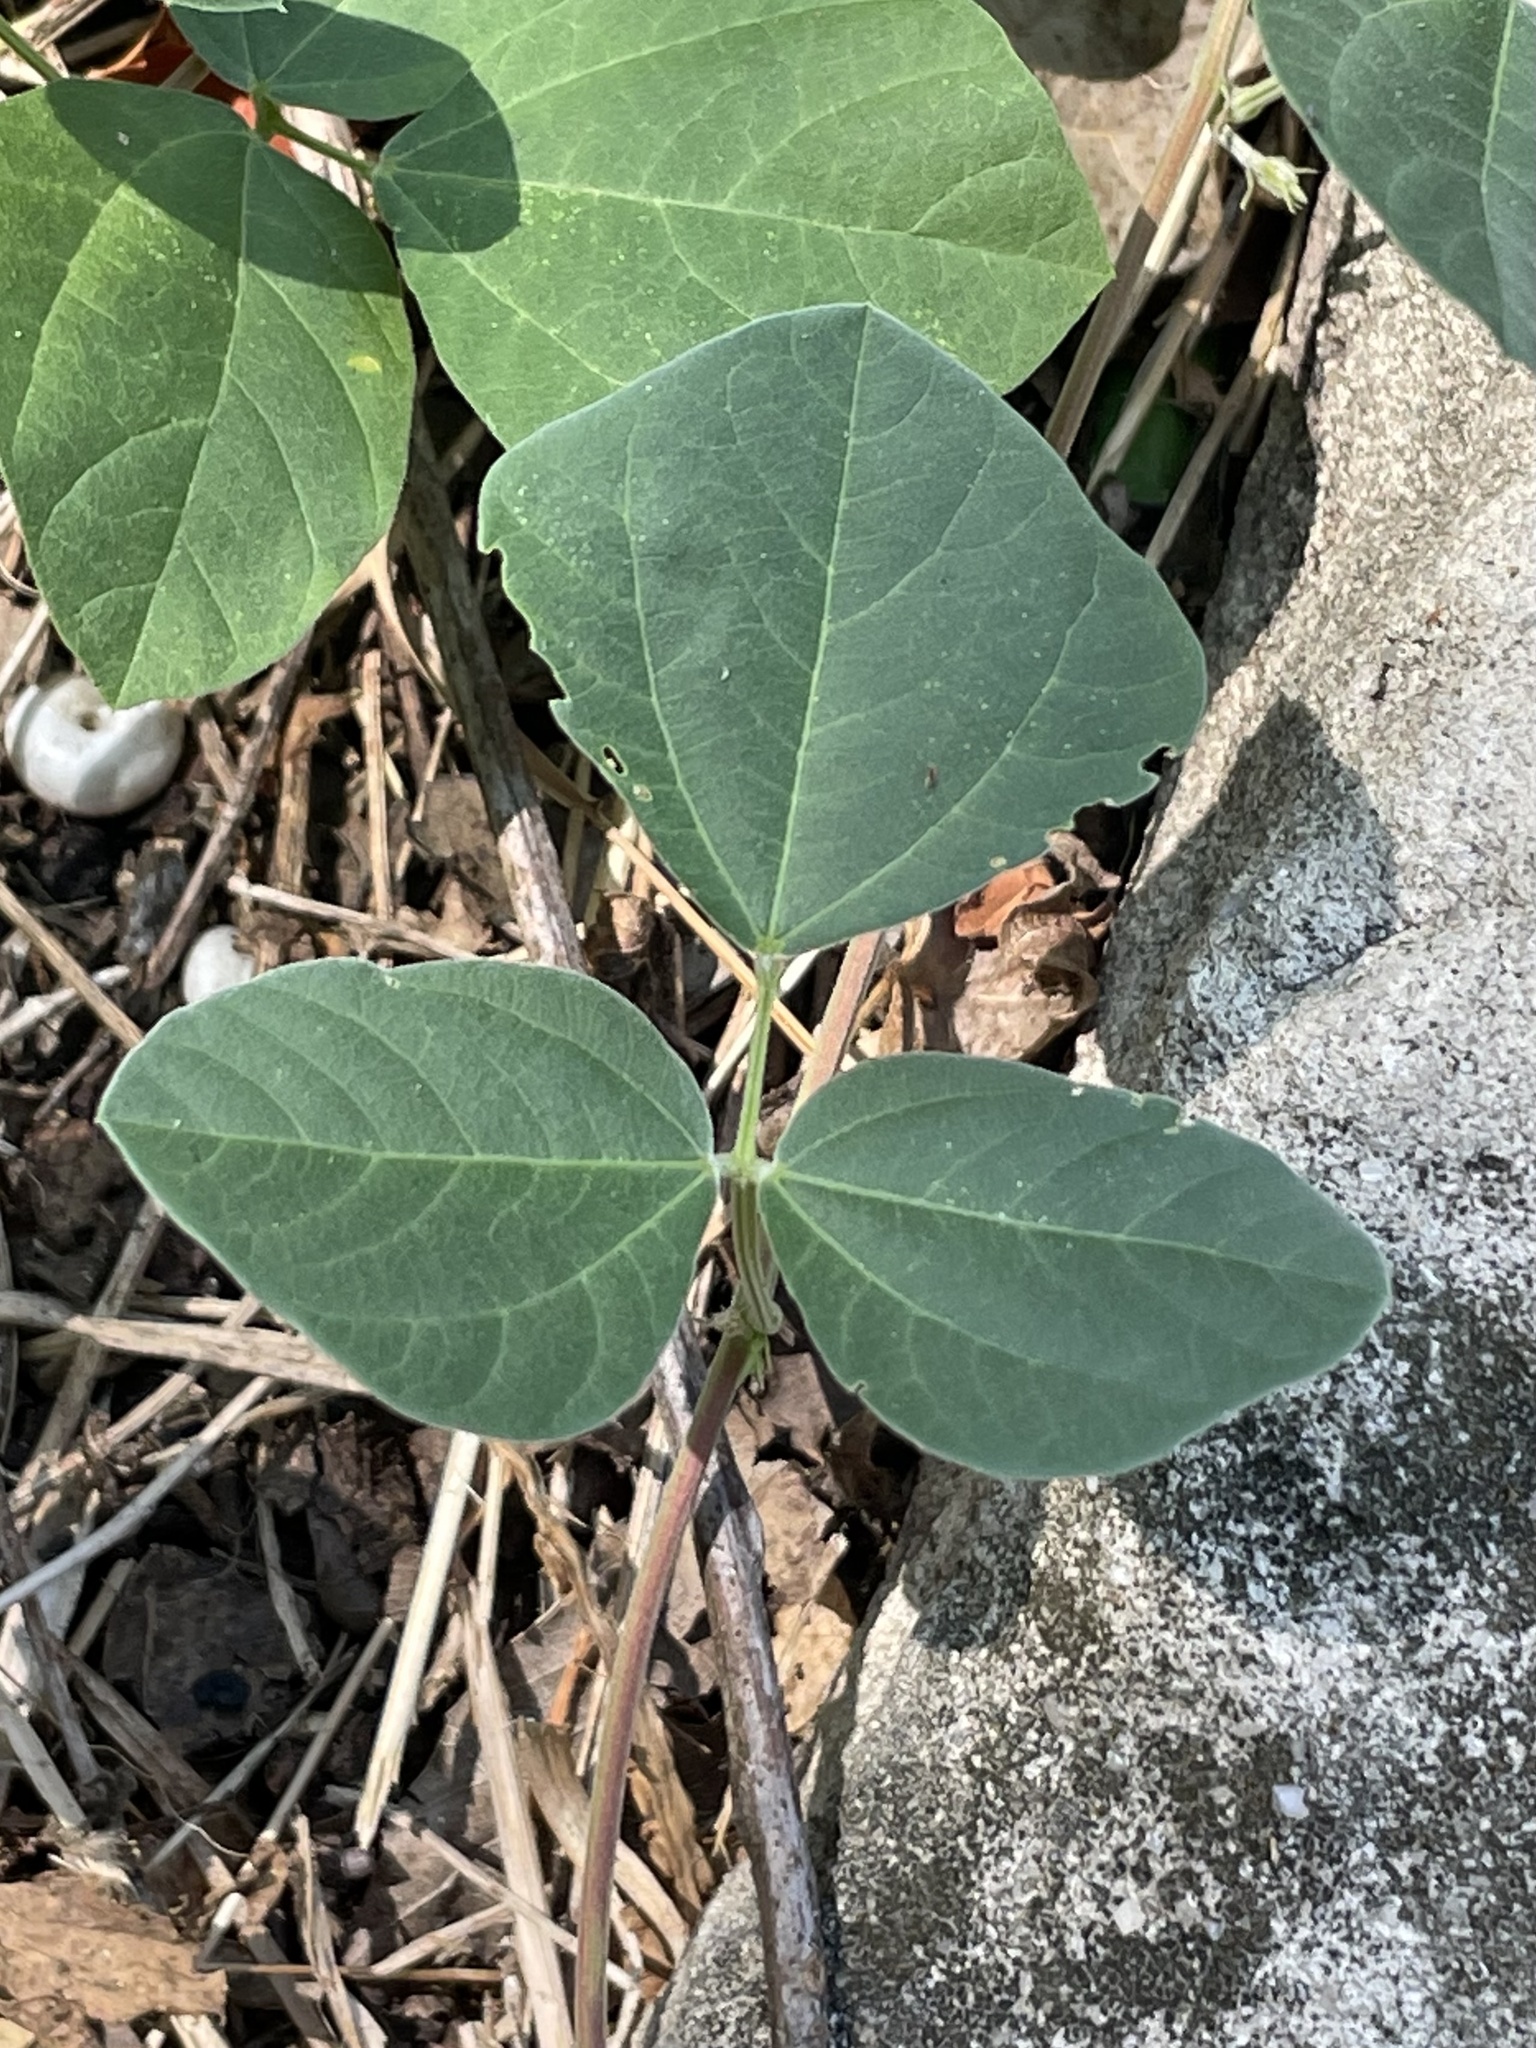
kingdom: Plantae
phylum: Tracheophyta
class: Magnoliopsida
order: Fabales
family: Fabaceae
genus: Rhynchosia
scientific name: Rhynchosia minima
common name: Least snoutbean
